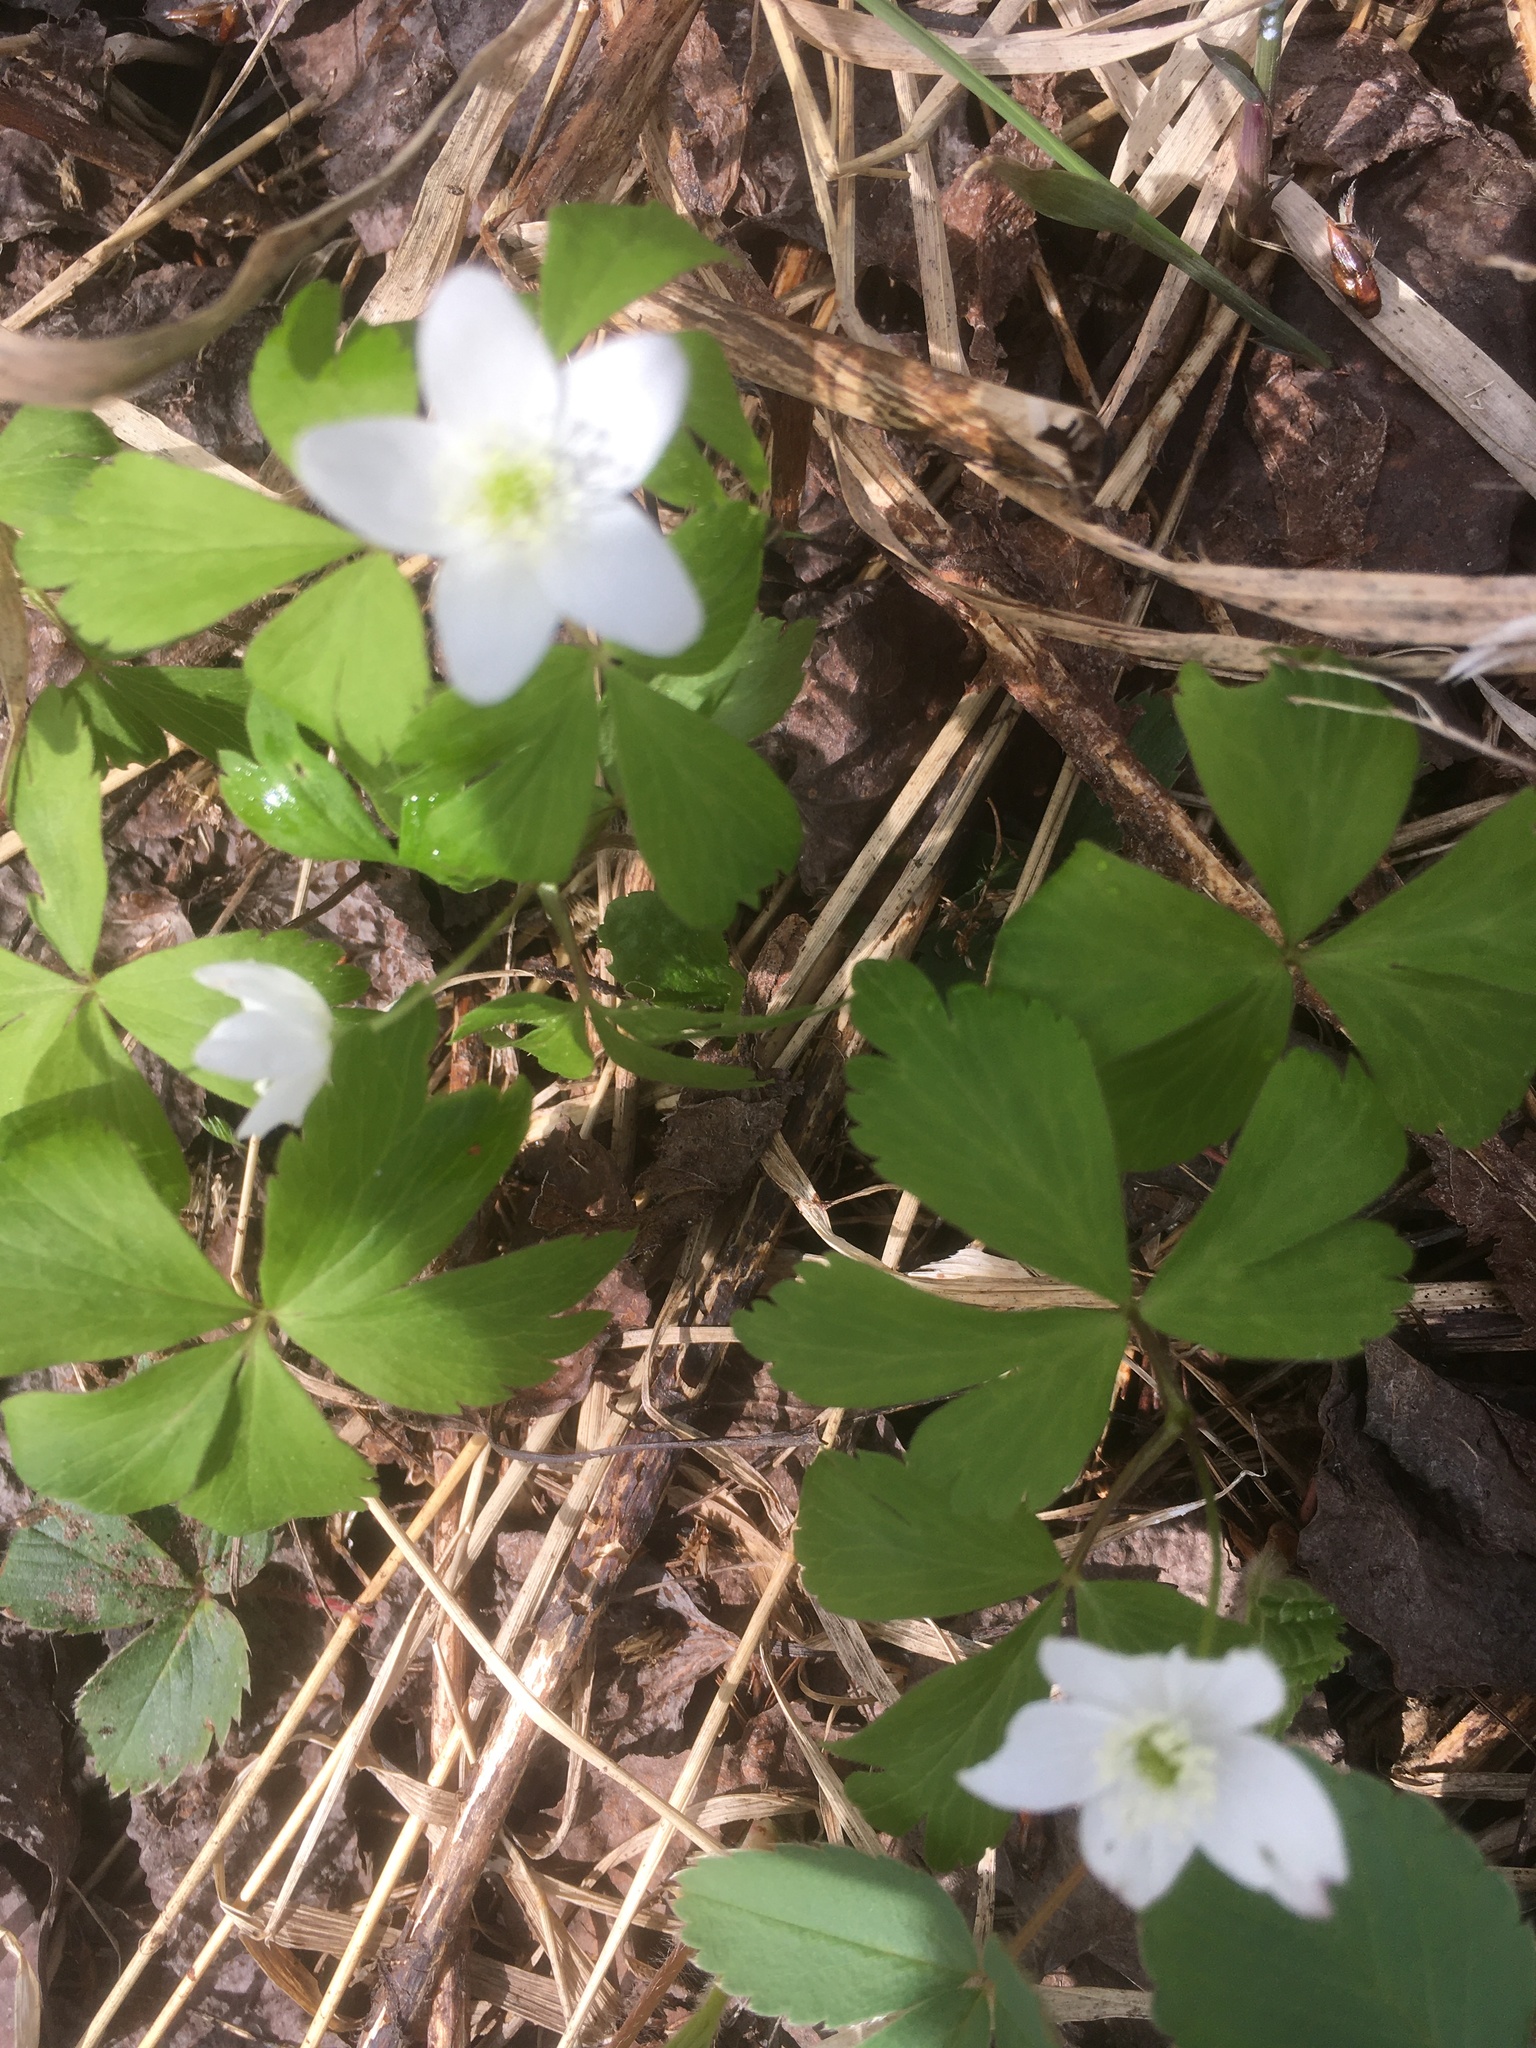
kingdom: Plantae
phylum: Tracheophyta
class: Magnoliopsida
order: Ranunculales
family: Ranunculaceae
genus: Anemone
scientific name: Anemone quinquefolia
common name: Wood anemone
